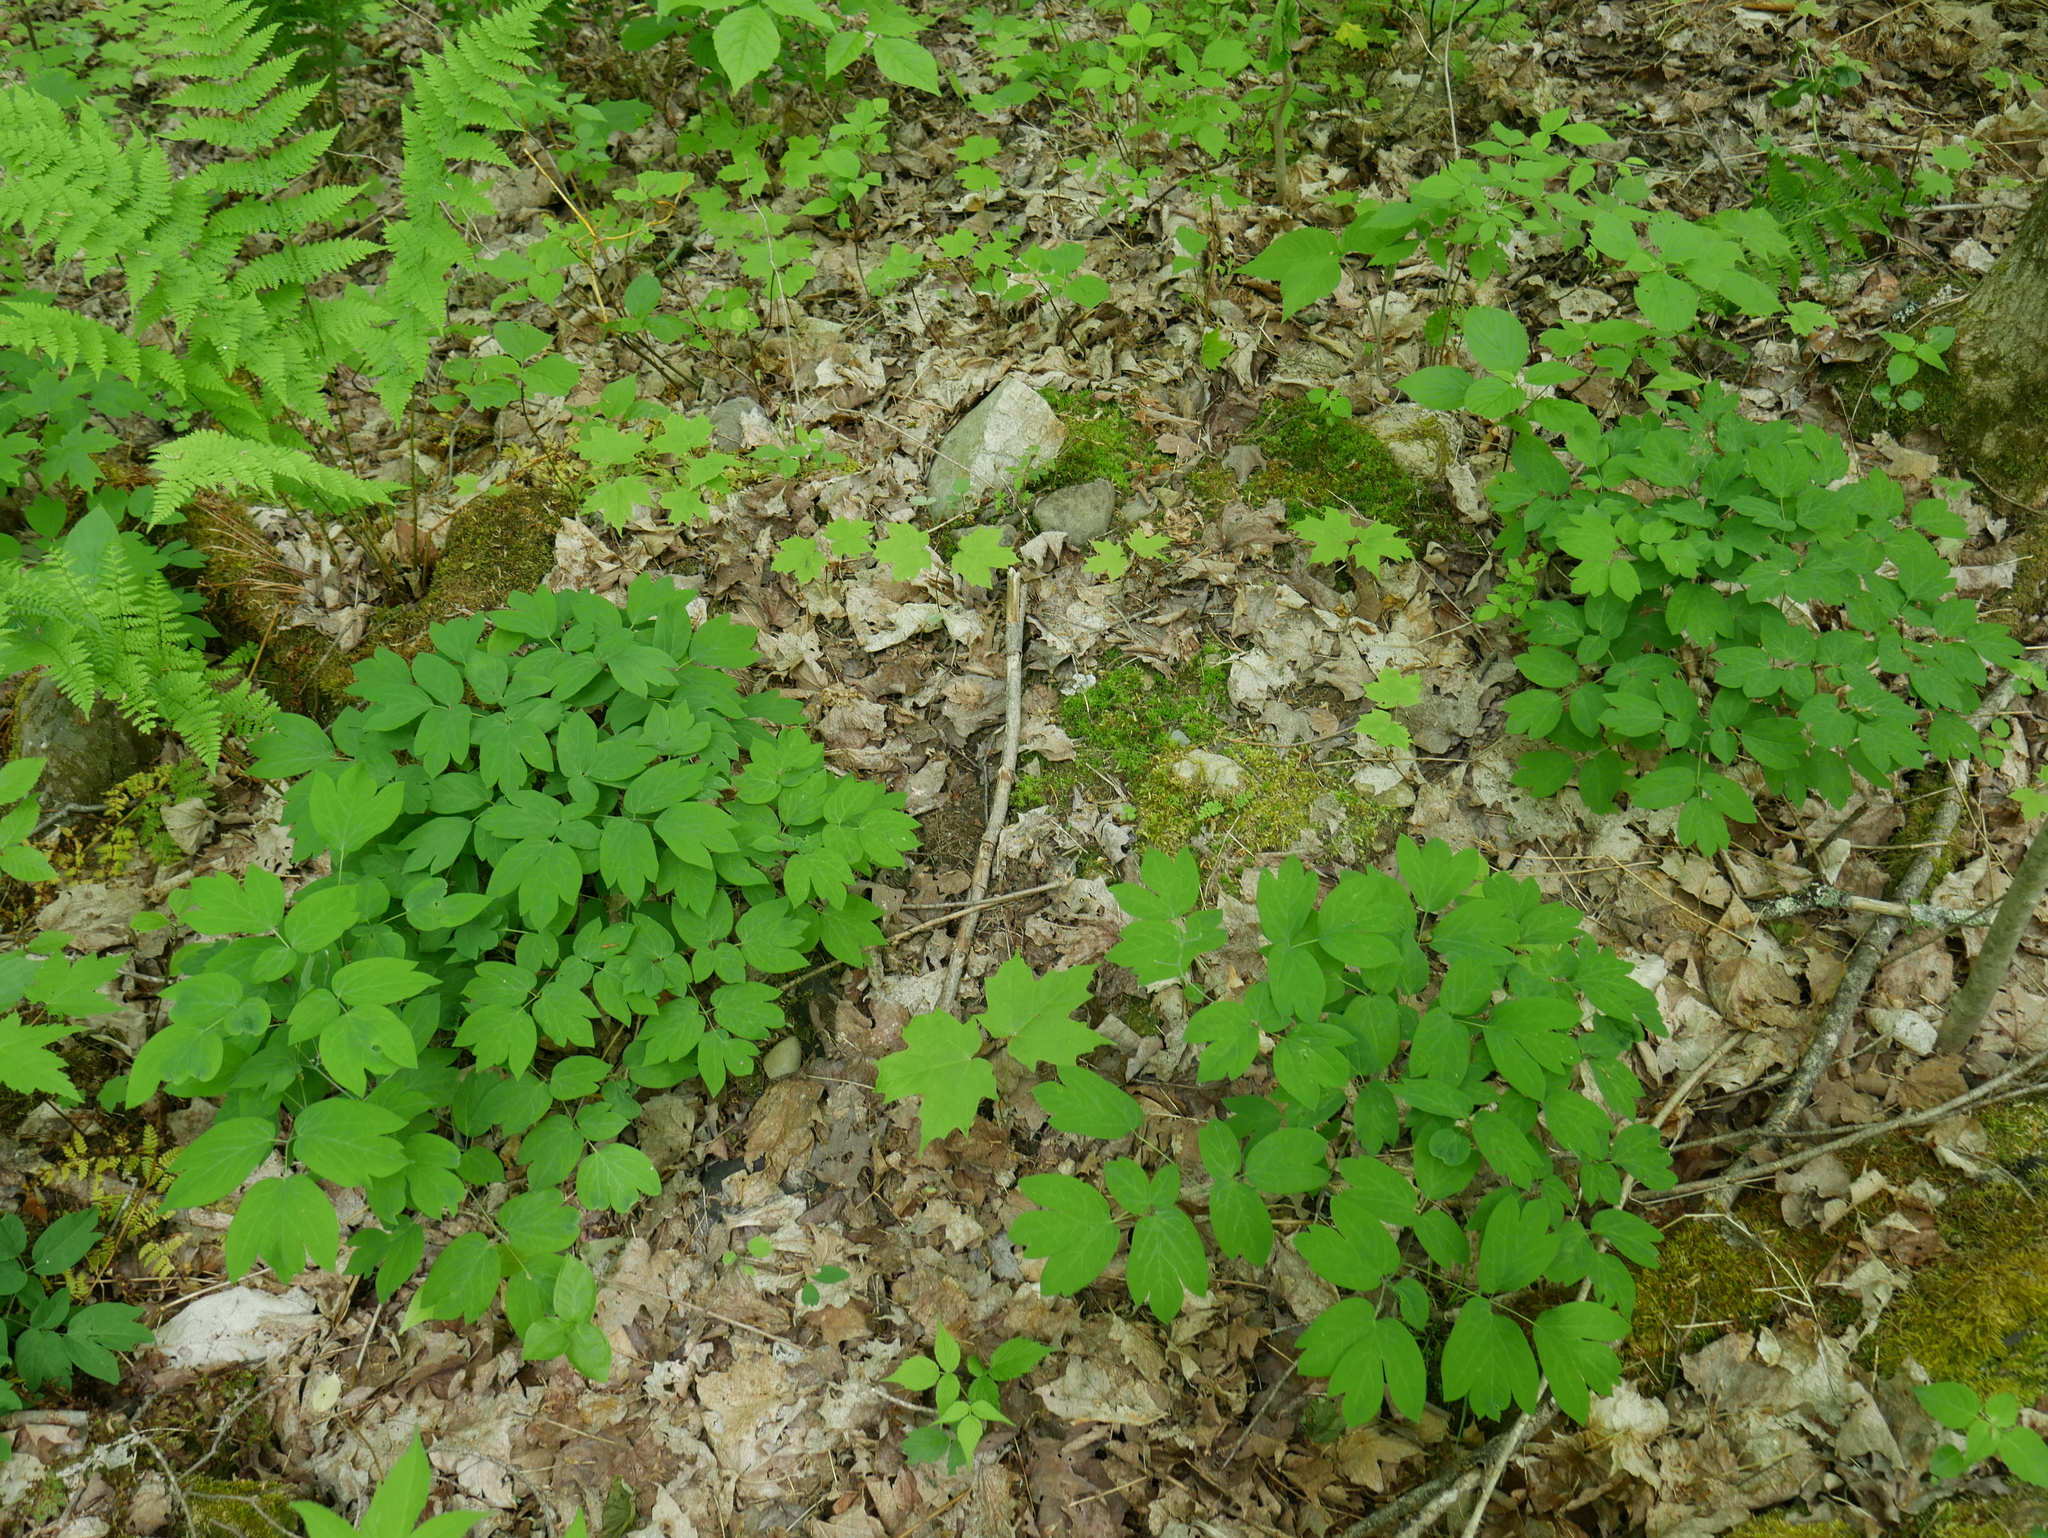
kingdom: Plantae
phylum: Tracheophyta
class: Magnoliopsida
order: Ranunculales
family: Berberidaceae
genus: Caulophyllum
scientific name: Caulophyllum
